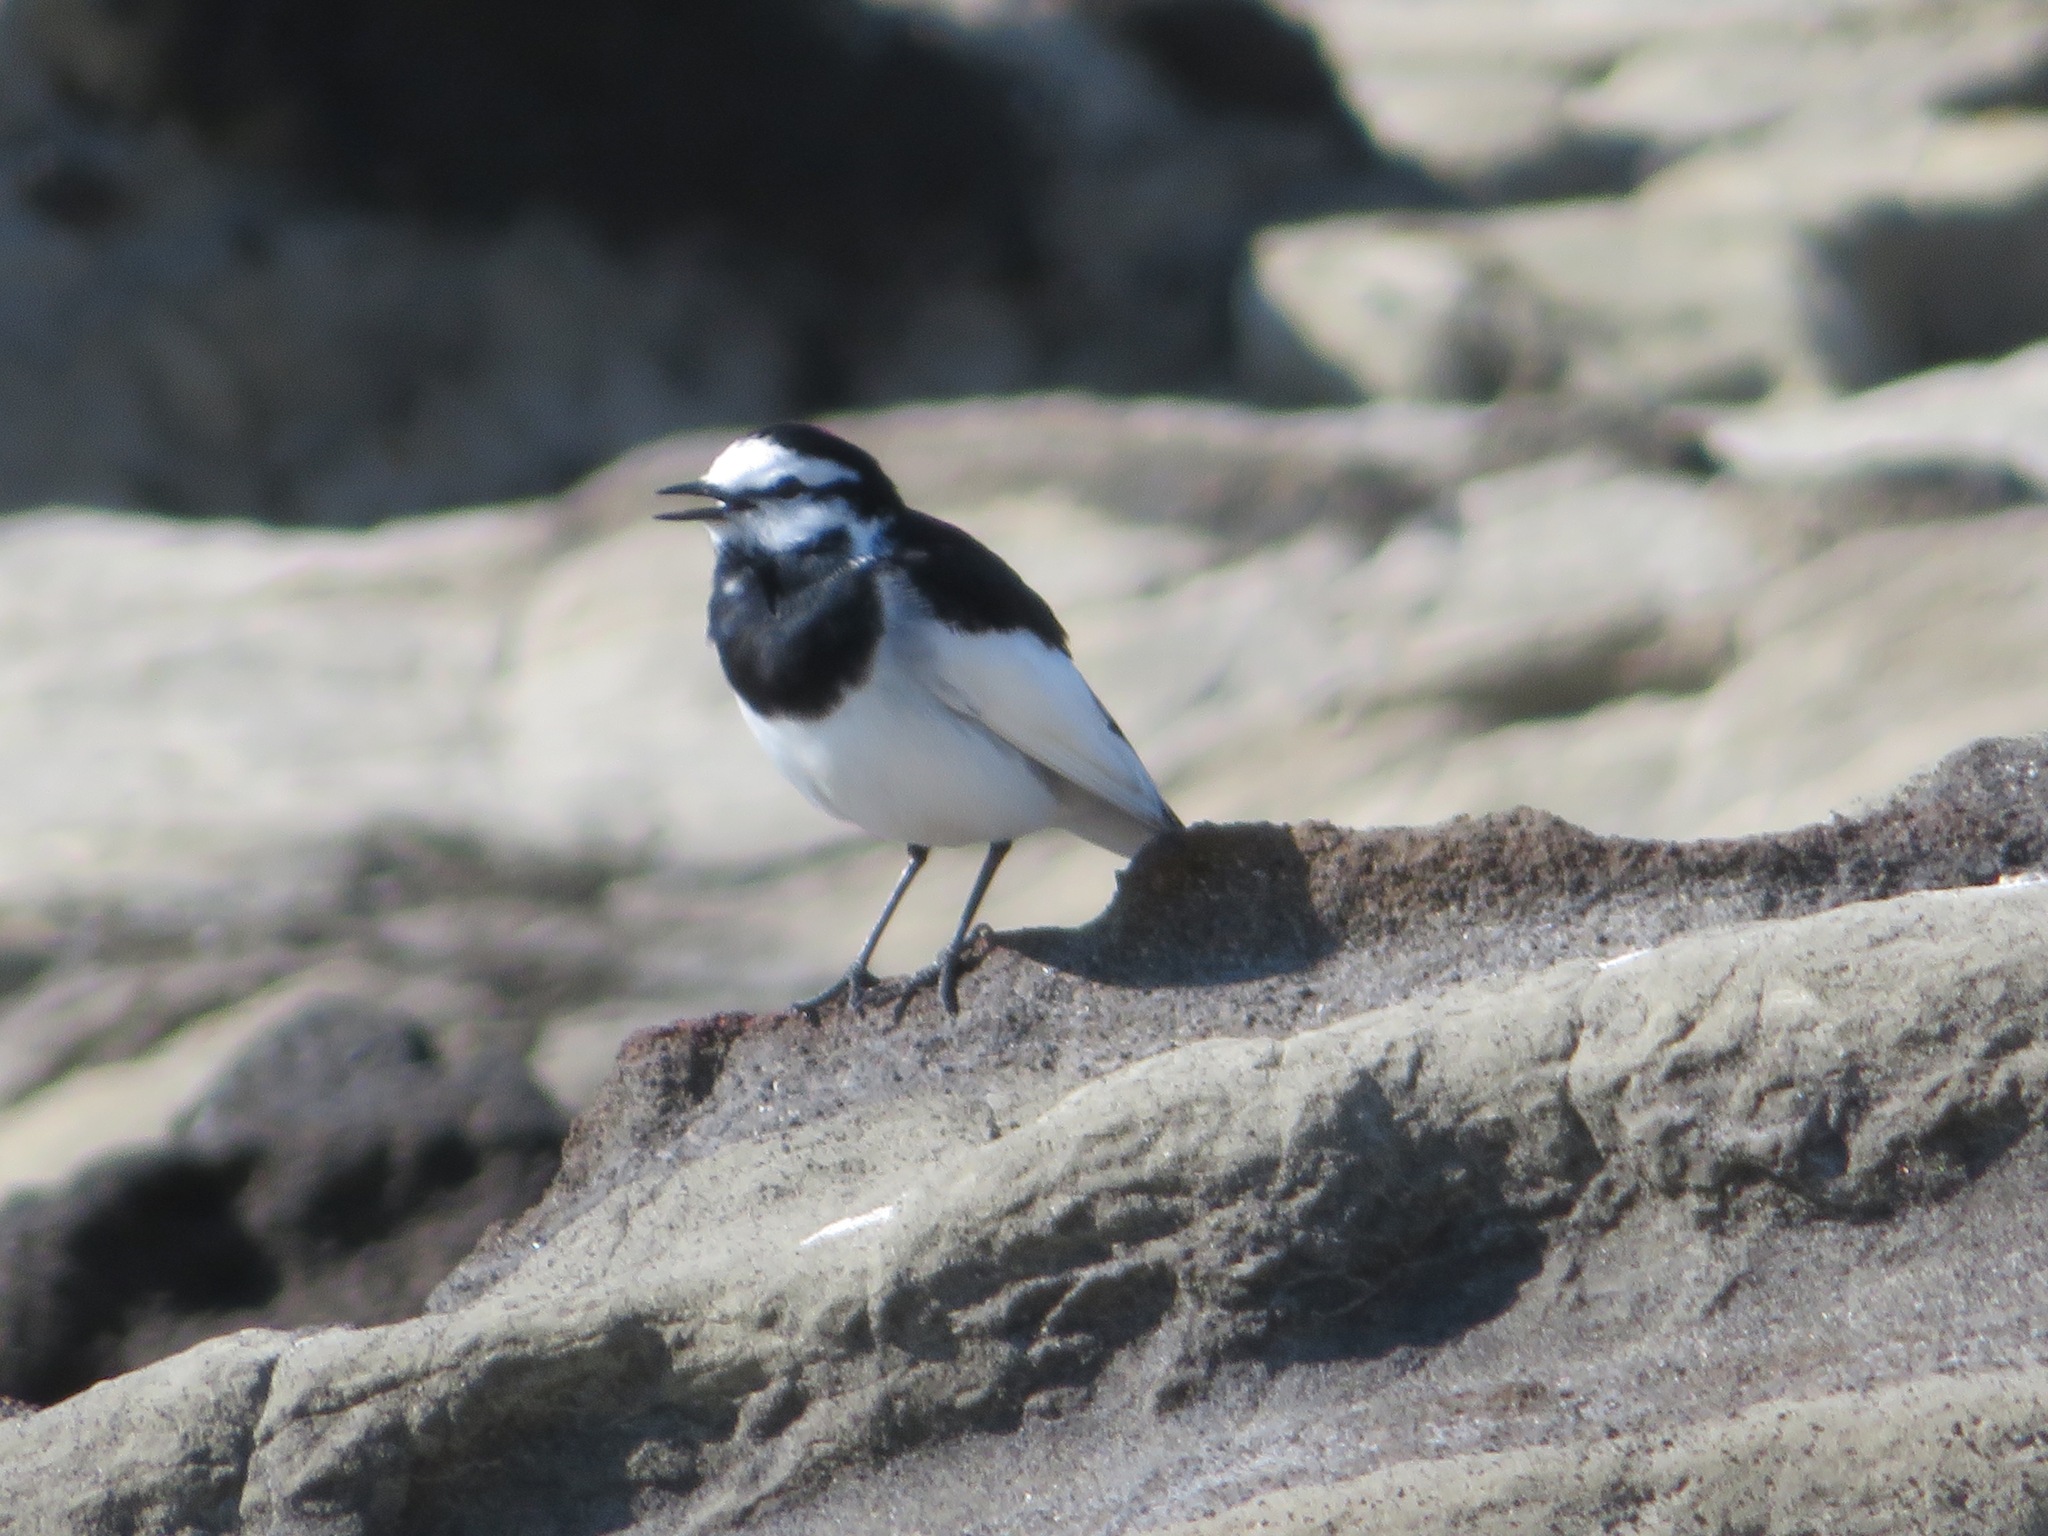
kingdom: Animalia
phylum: Chordata
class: Aves
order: Passeriformes
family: Motacillidae
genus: Motacilla
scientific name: Motacilla alba
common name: White wagtail
